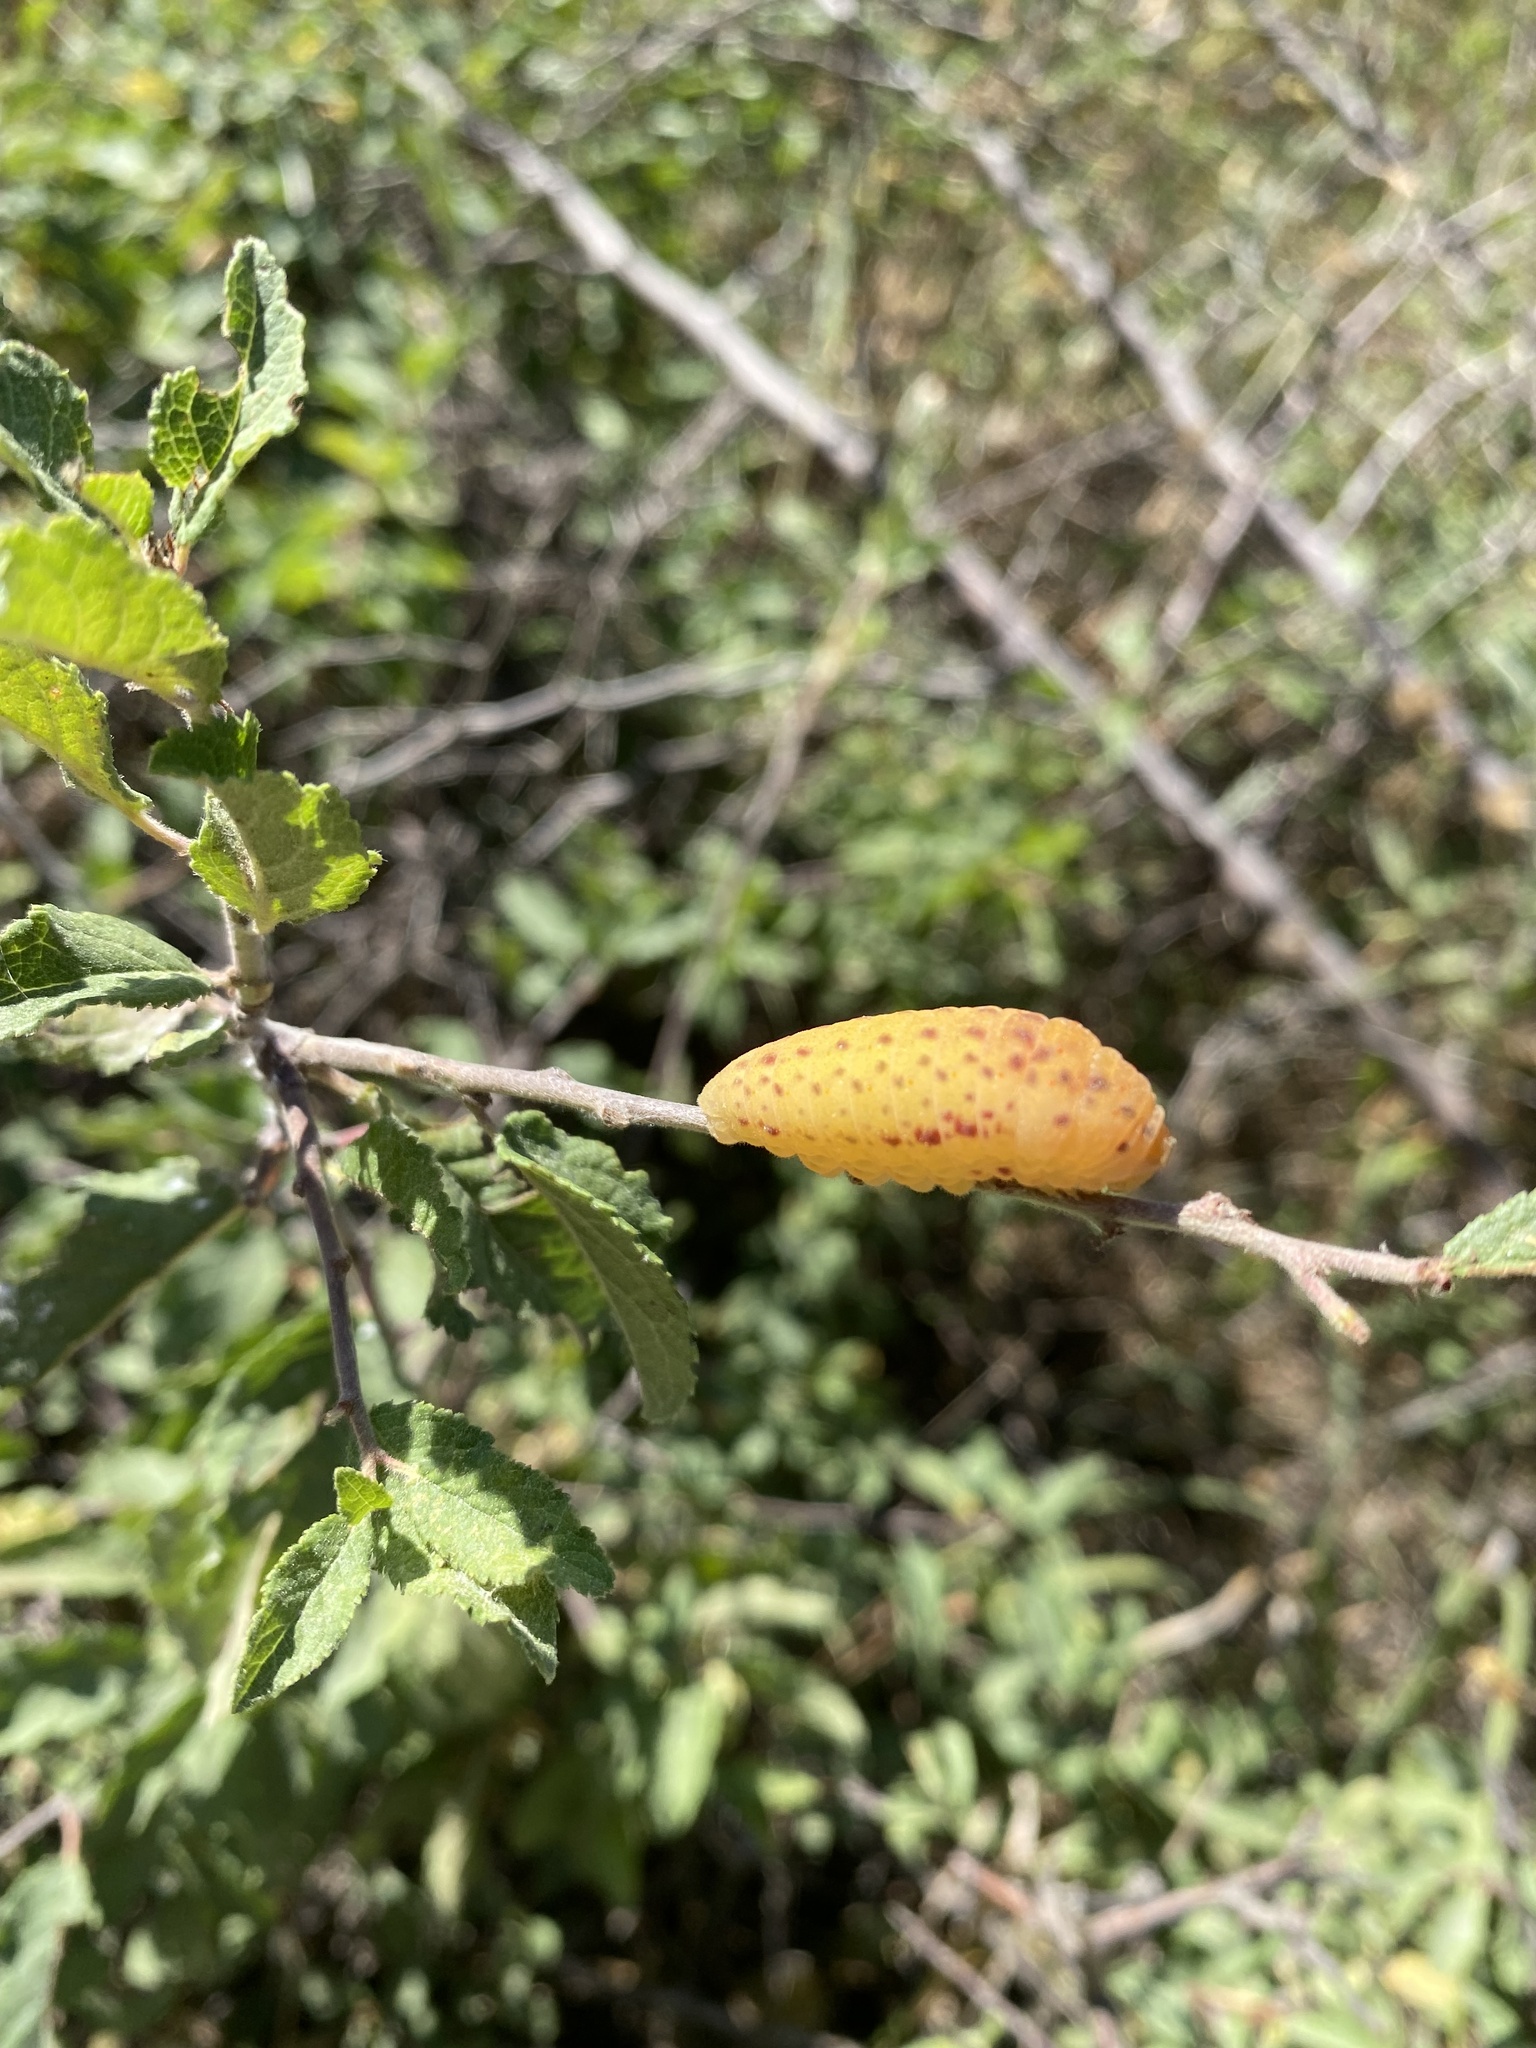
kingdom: Animalia
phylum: Arthropoda
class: Insecta
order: Lepidoptera
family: Papilionidae
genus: Iphiclides
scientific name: Iphiclides podalirius
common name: Scarce swallowtail
